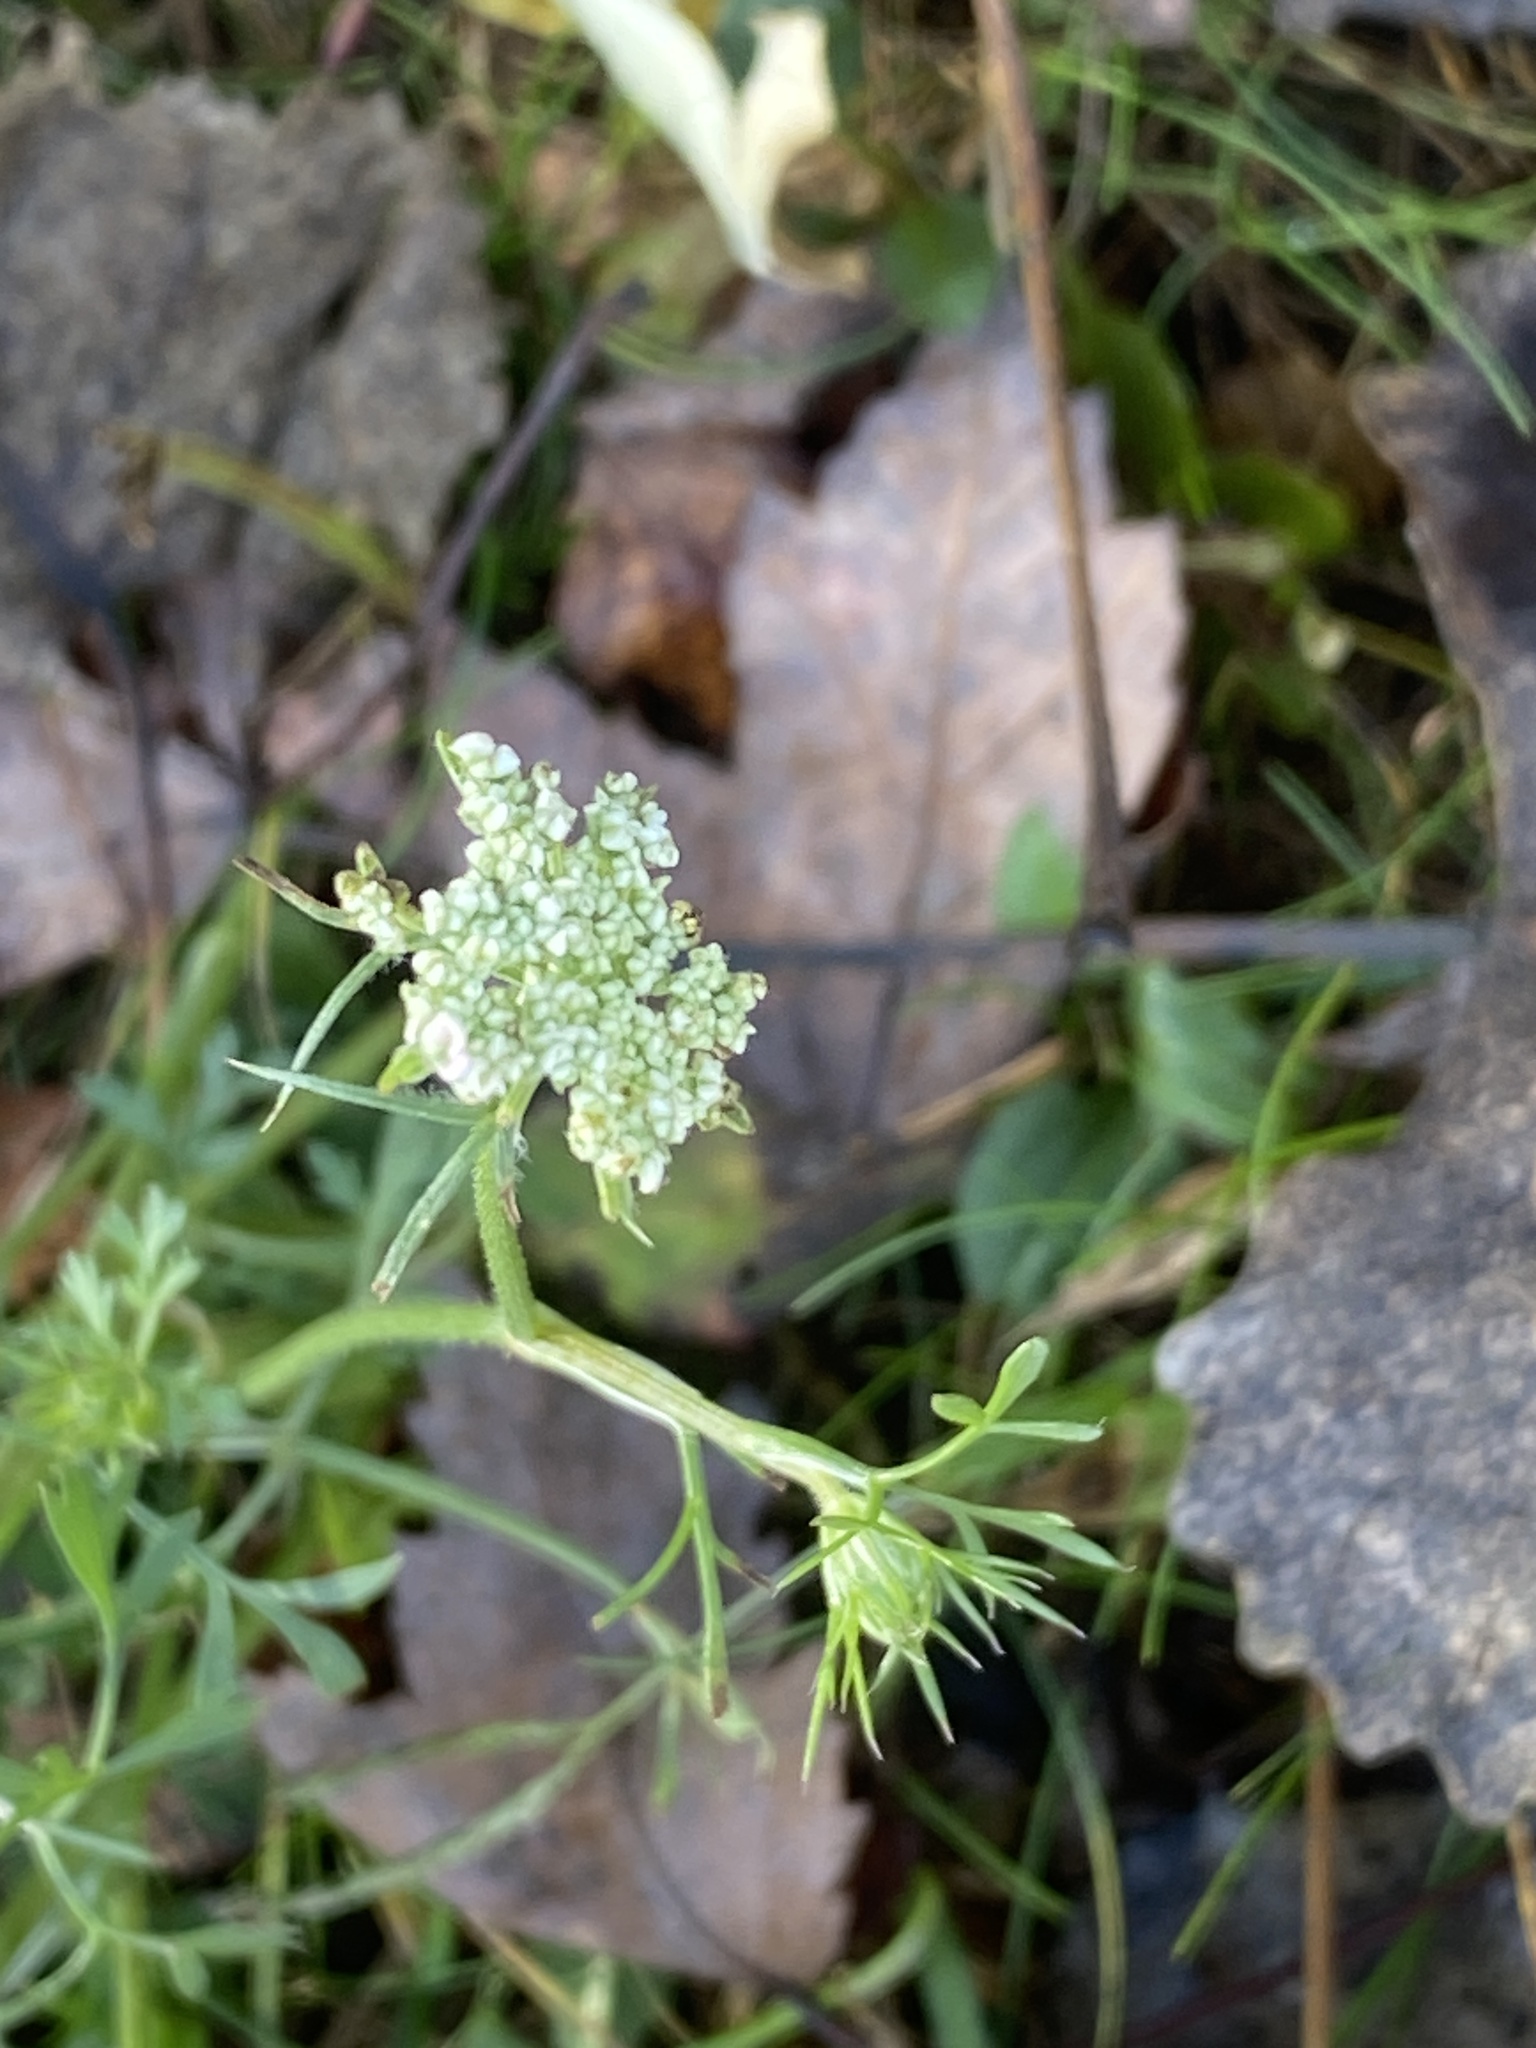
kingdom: Plantae
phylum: Tracheophyta
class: Magnoliopsida
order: Apiales
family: Apiaceae
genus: Daucus
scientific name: Daucus carota
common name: Wild carrot
